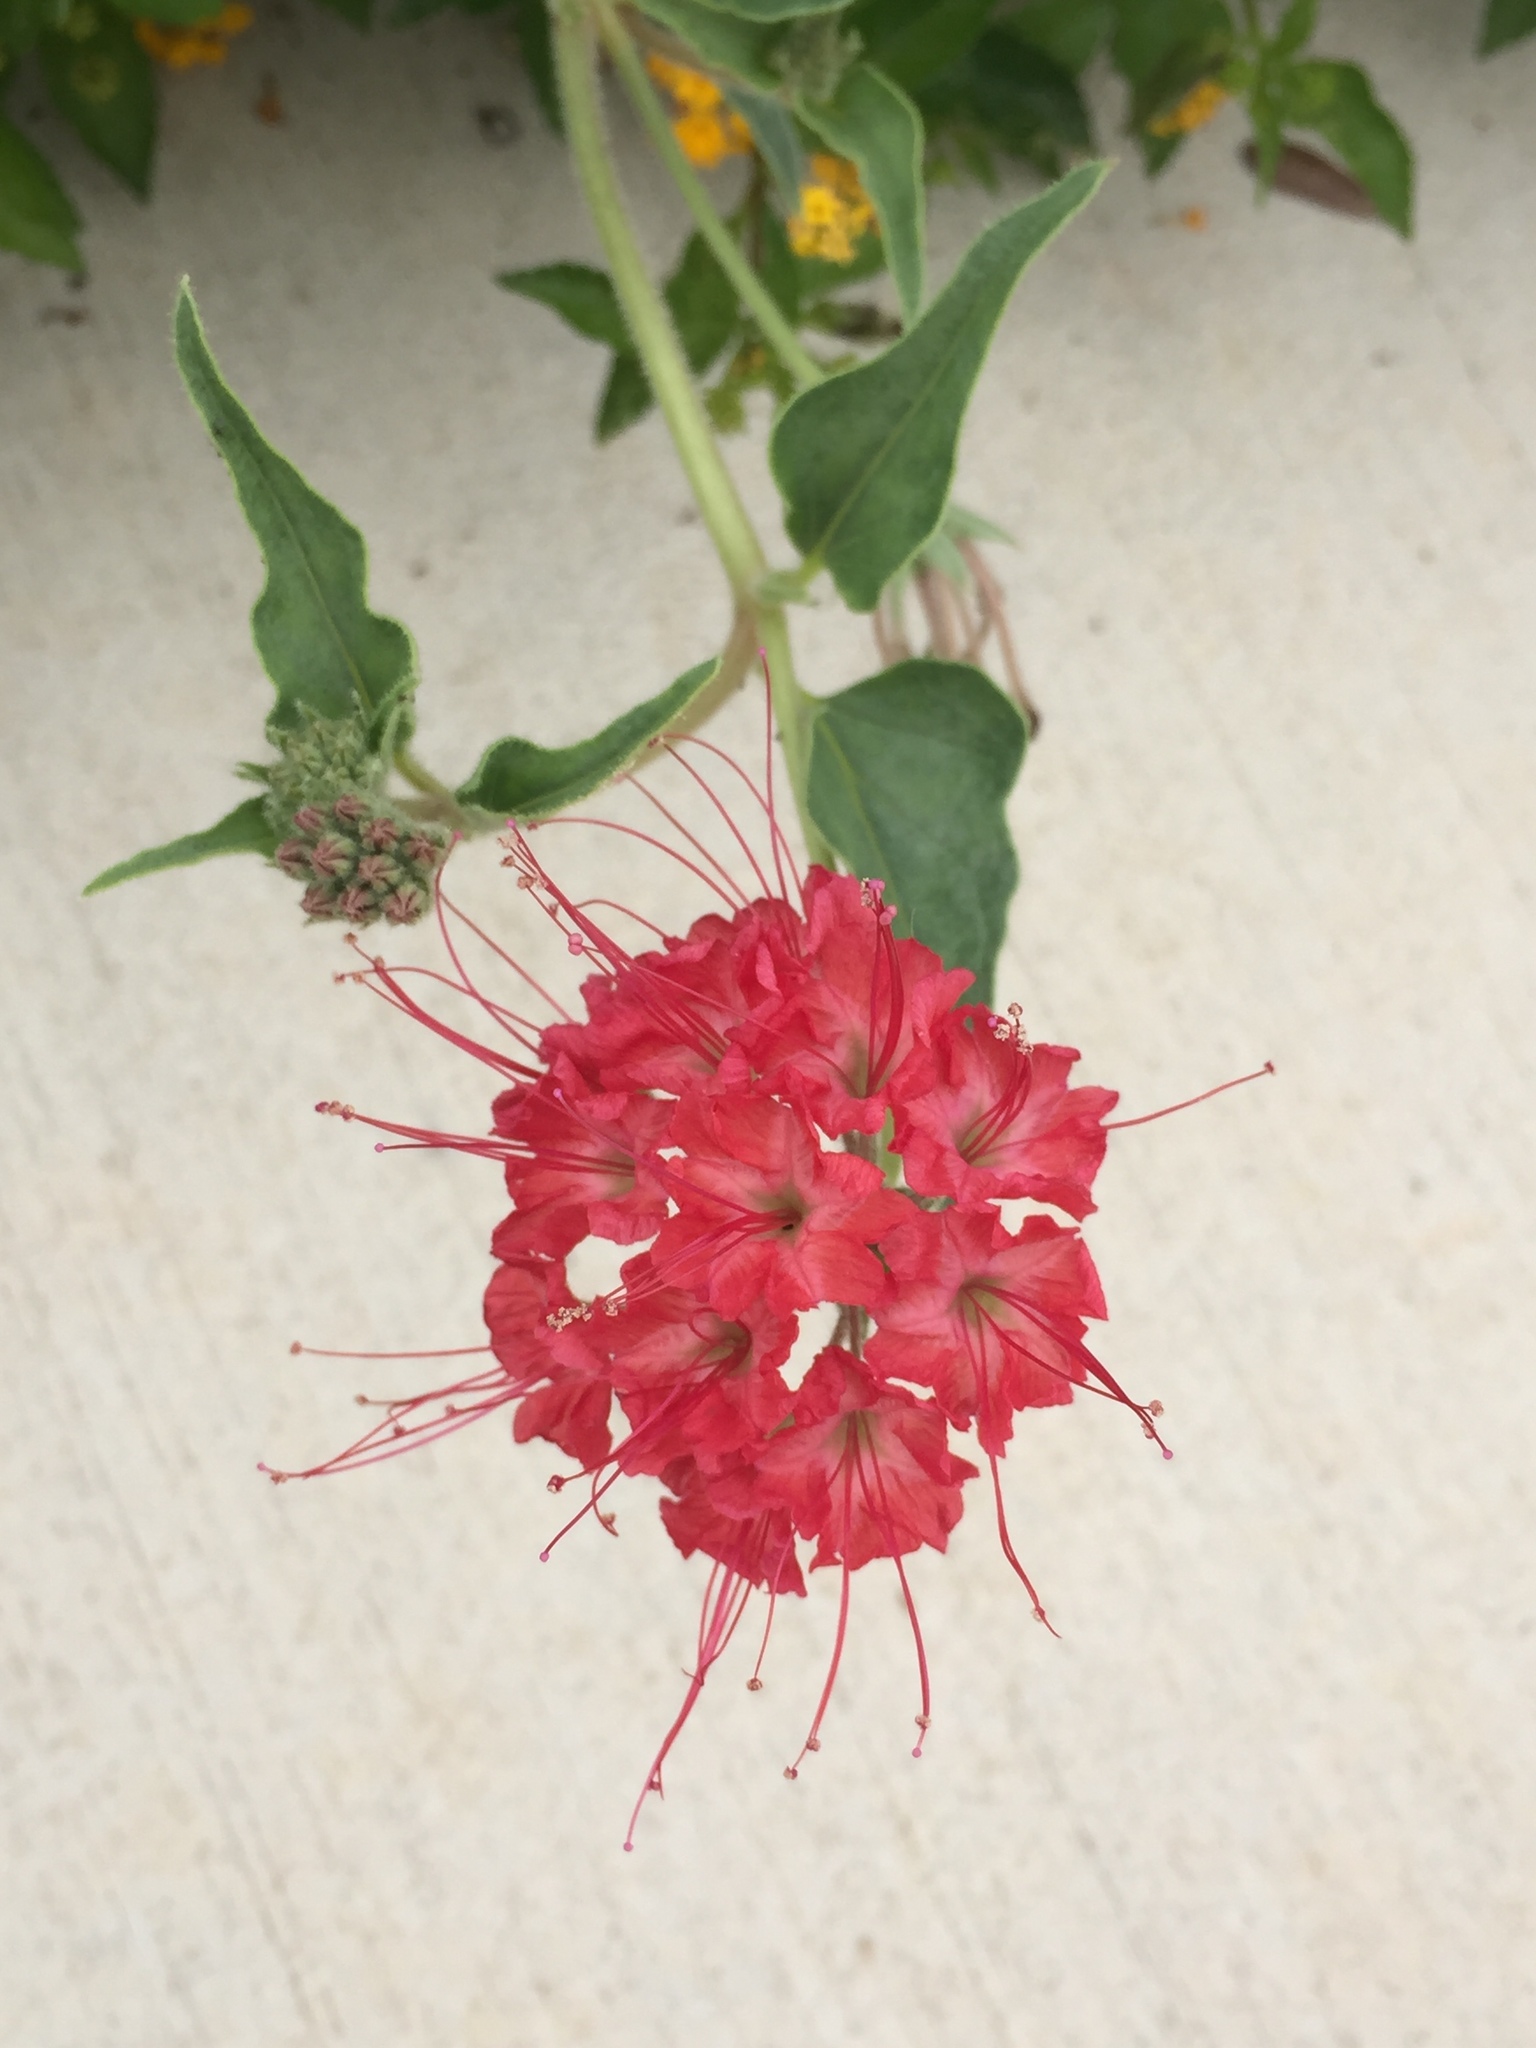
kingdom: Plantae
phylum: Tracheophyta
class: Magnoliopsida
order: Caryophyllales
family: Nyctaginaceae
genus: Nyctaginia
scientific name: Nyctaginia capitata
